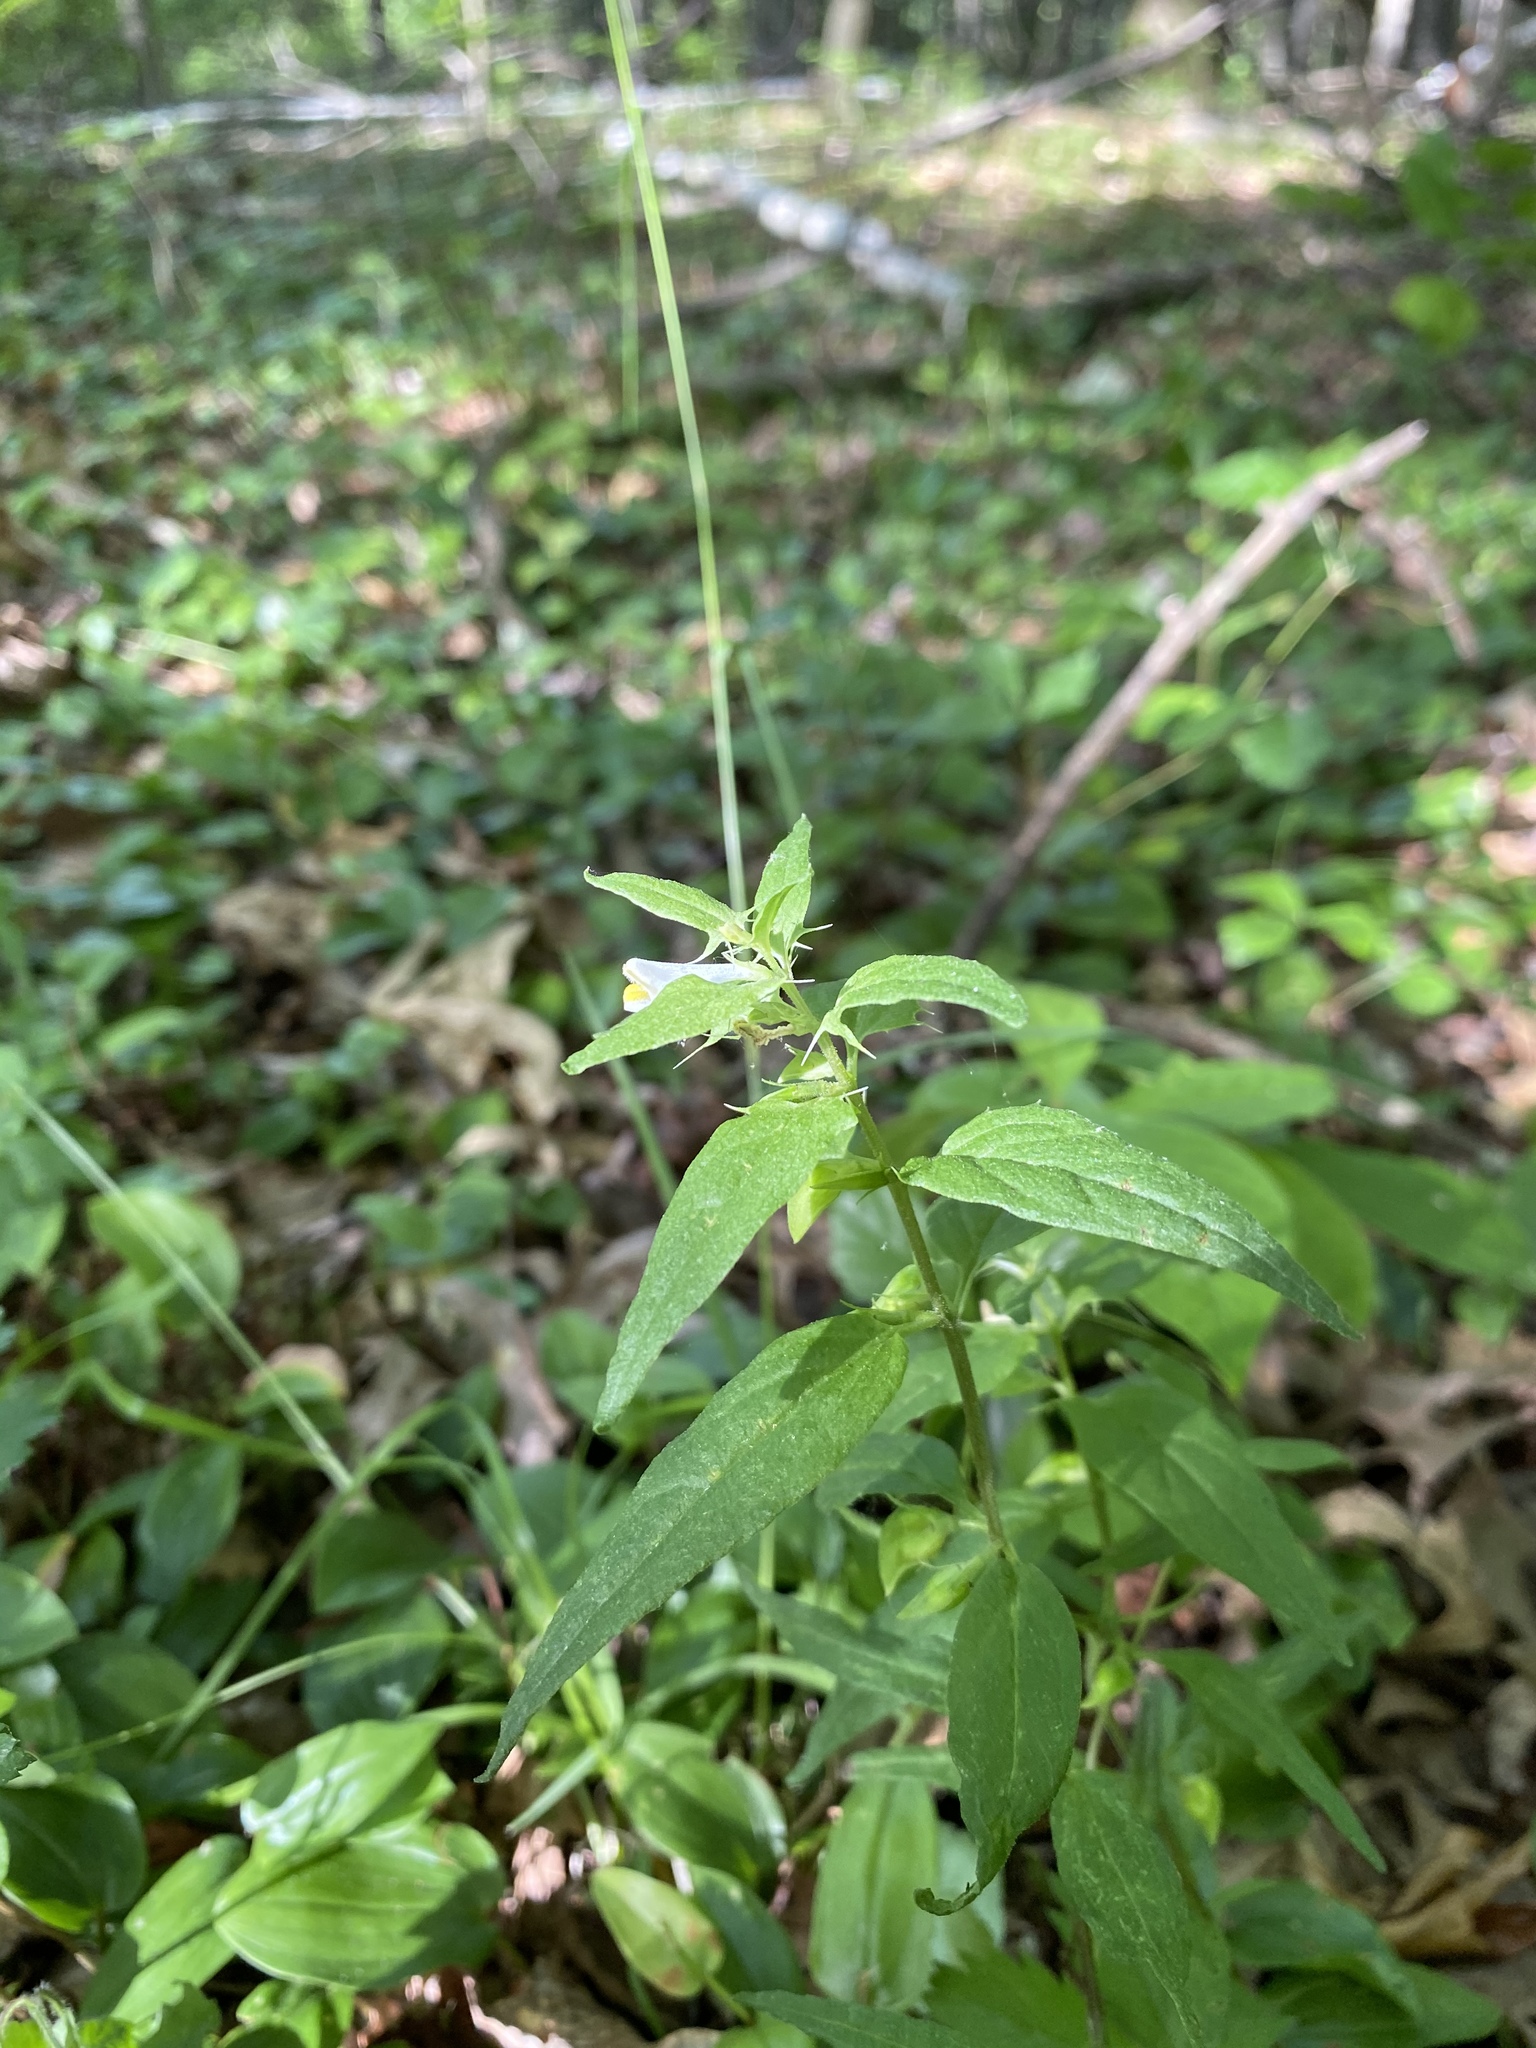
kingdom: Plantae
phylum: Tracheophyta
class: Magnoliopsida
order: Lamiales
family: Orobanchaceae
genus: Melampyrum
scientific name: Melampyrum lineare
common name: American cow-wheat
